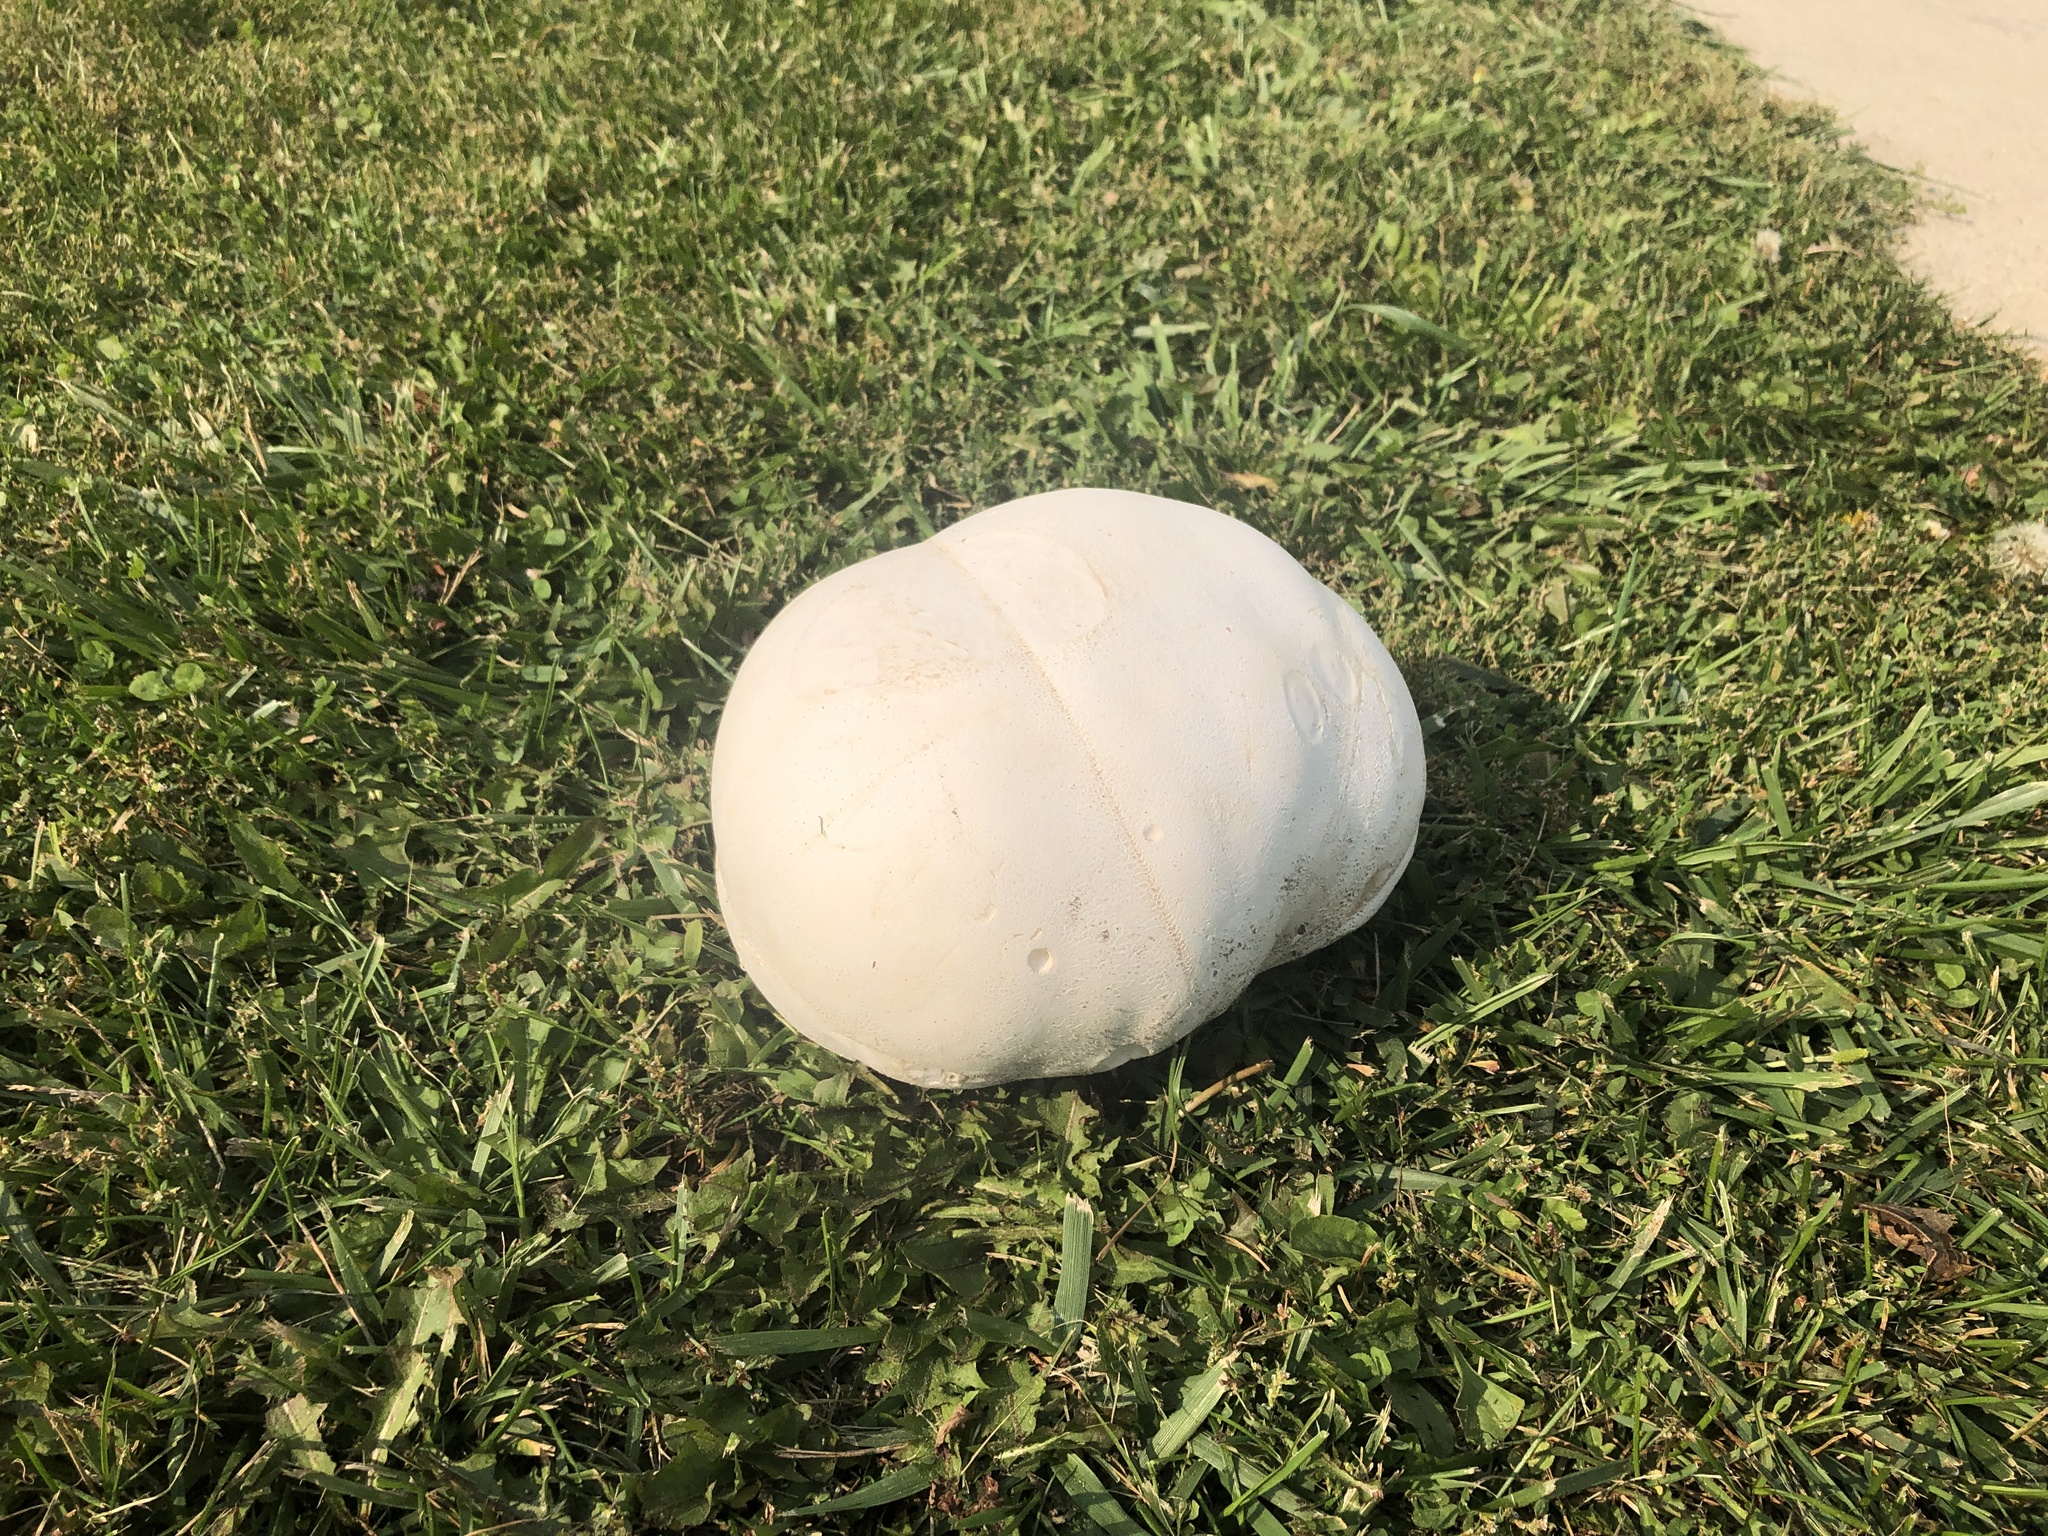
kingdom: Fungi
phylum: Basidiomycota
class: Agaricomycetes
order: Agaricales
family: Lycoperdaceae
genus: Calvatia
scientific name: Calvatia gigantea
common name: Giant puffball
